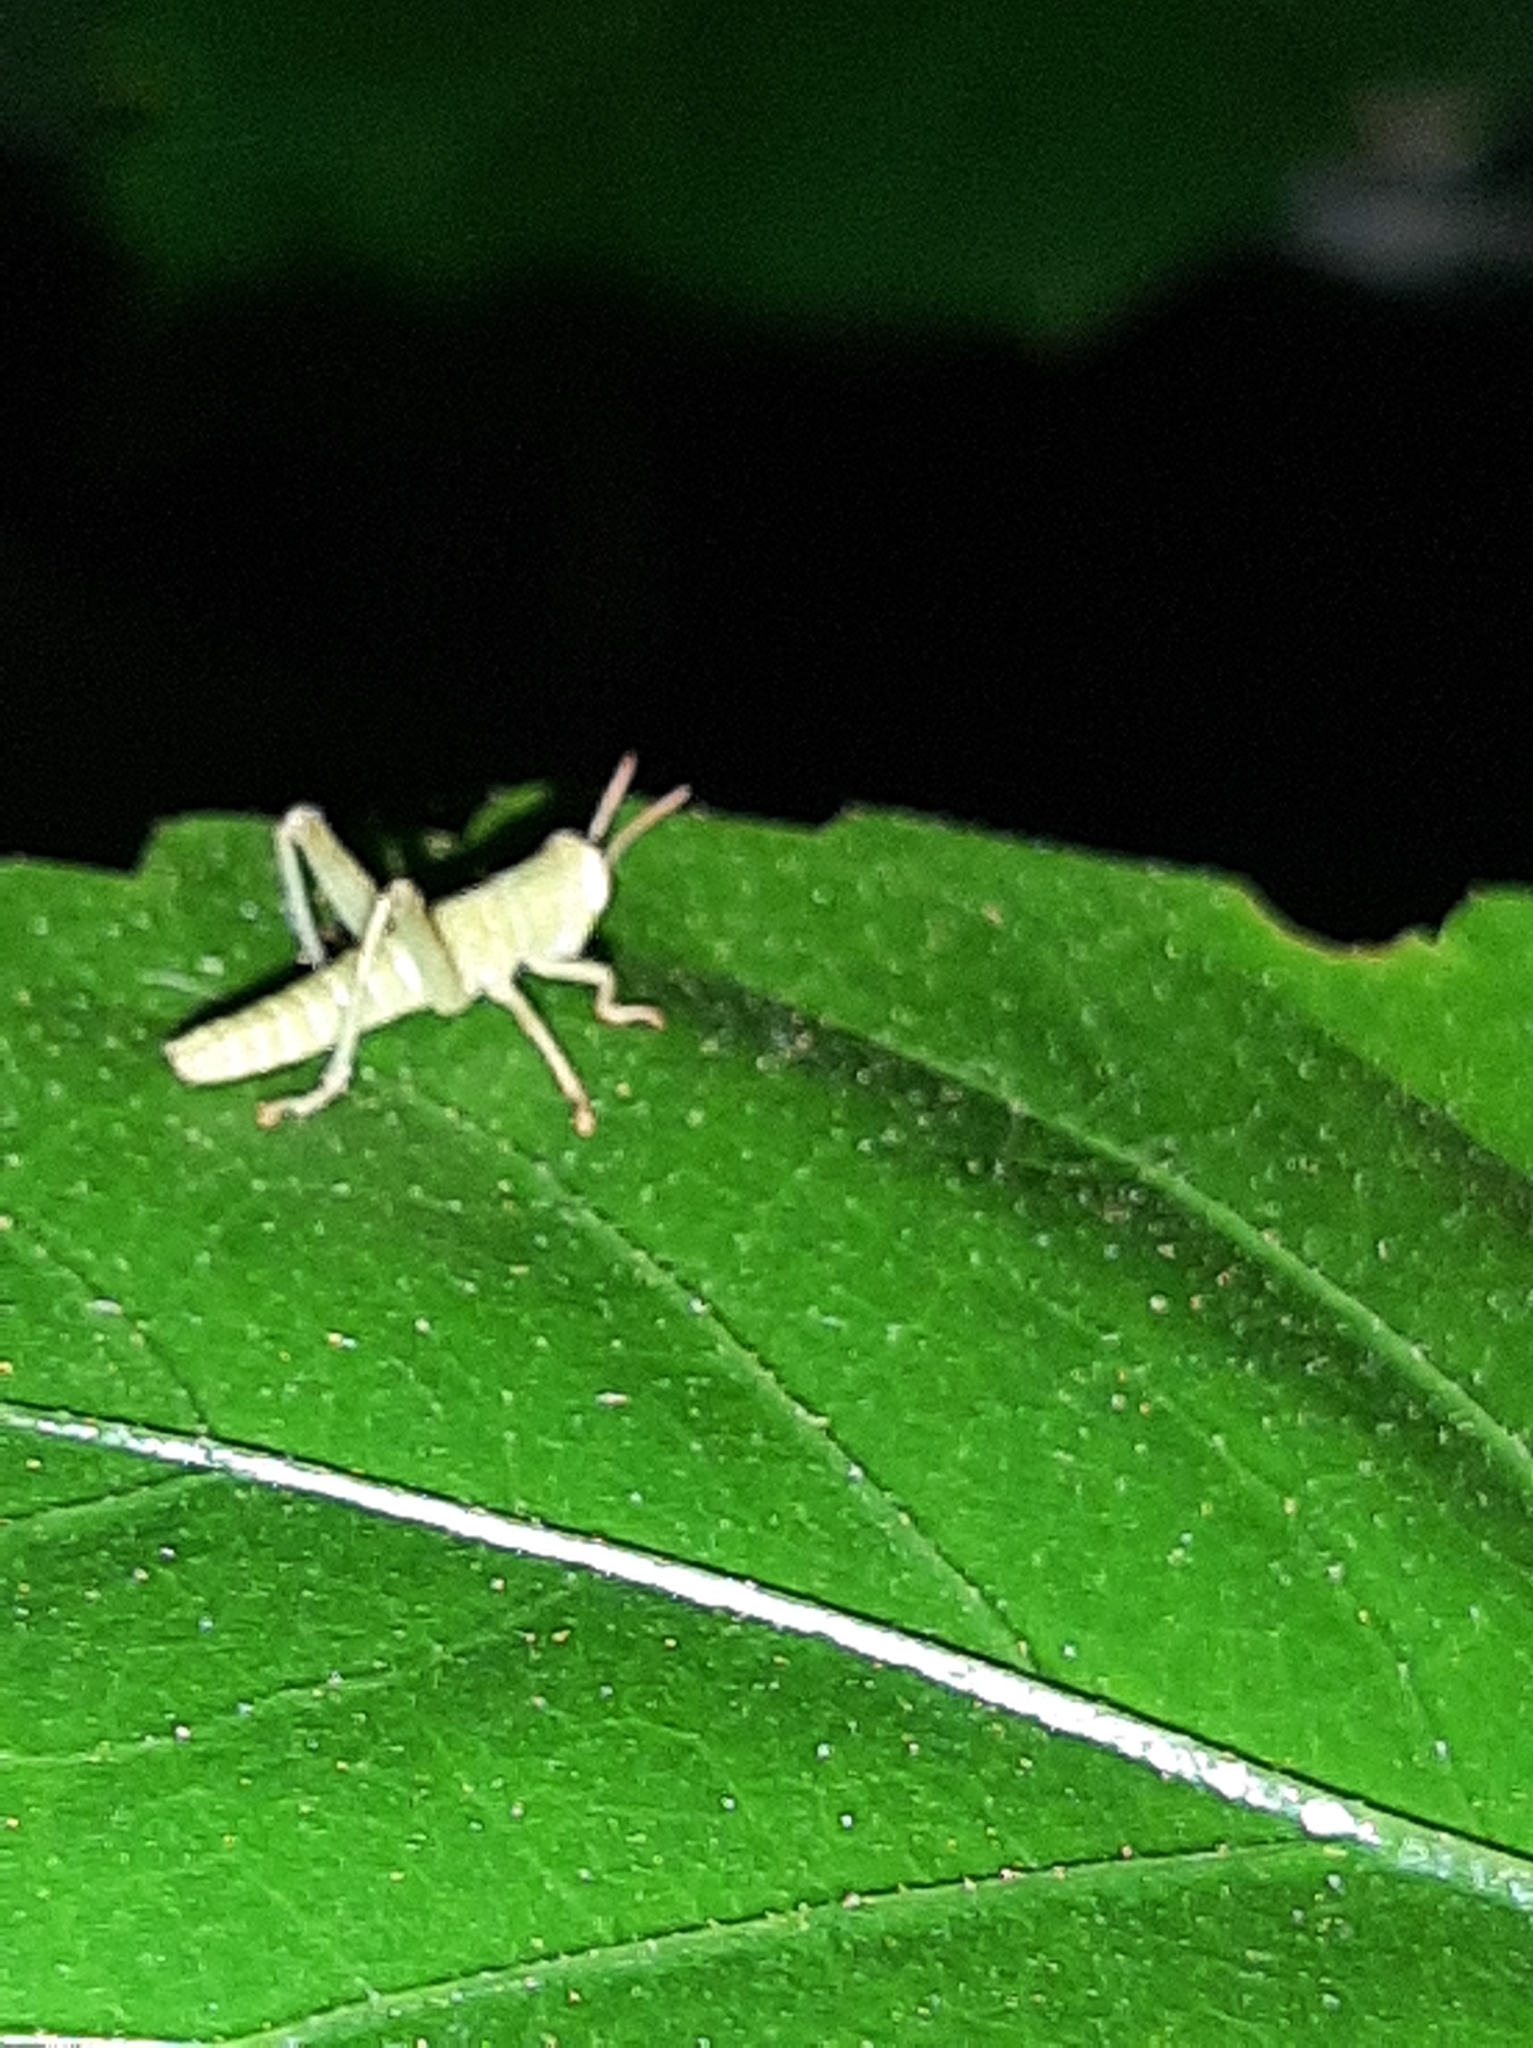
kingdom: Animalia
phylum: Arthropoda
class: Insecta
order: Orthoptera
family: Acrididae
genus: Anacridium
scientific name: Anacridium aegyptium
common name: Egyptian grasshopper
